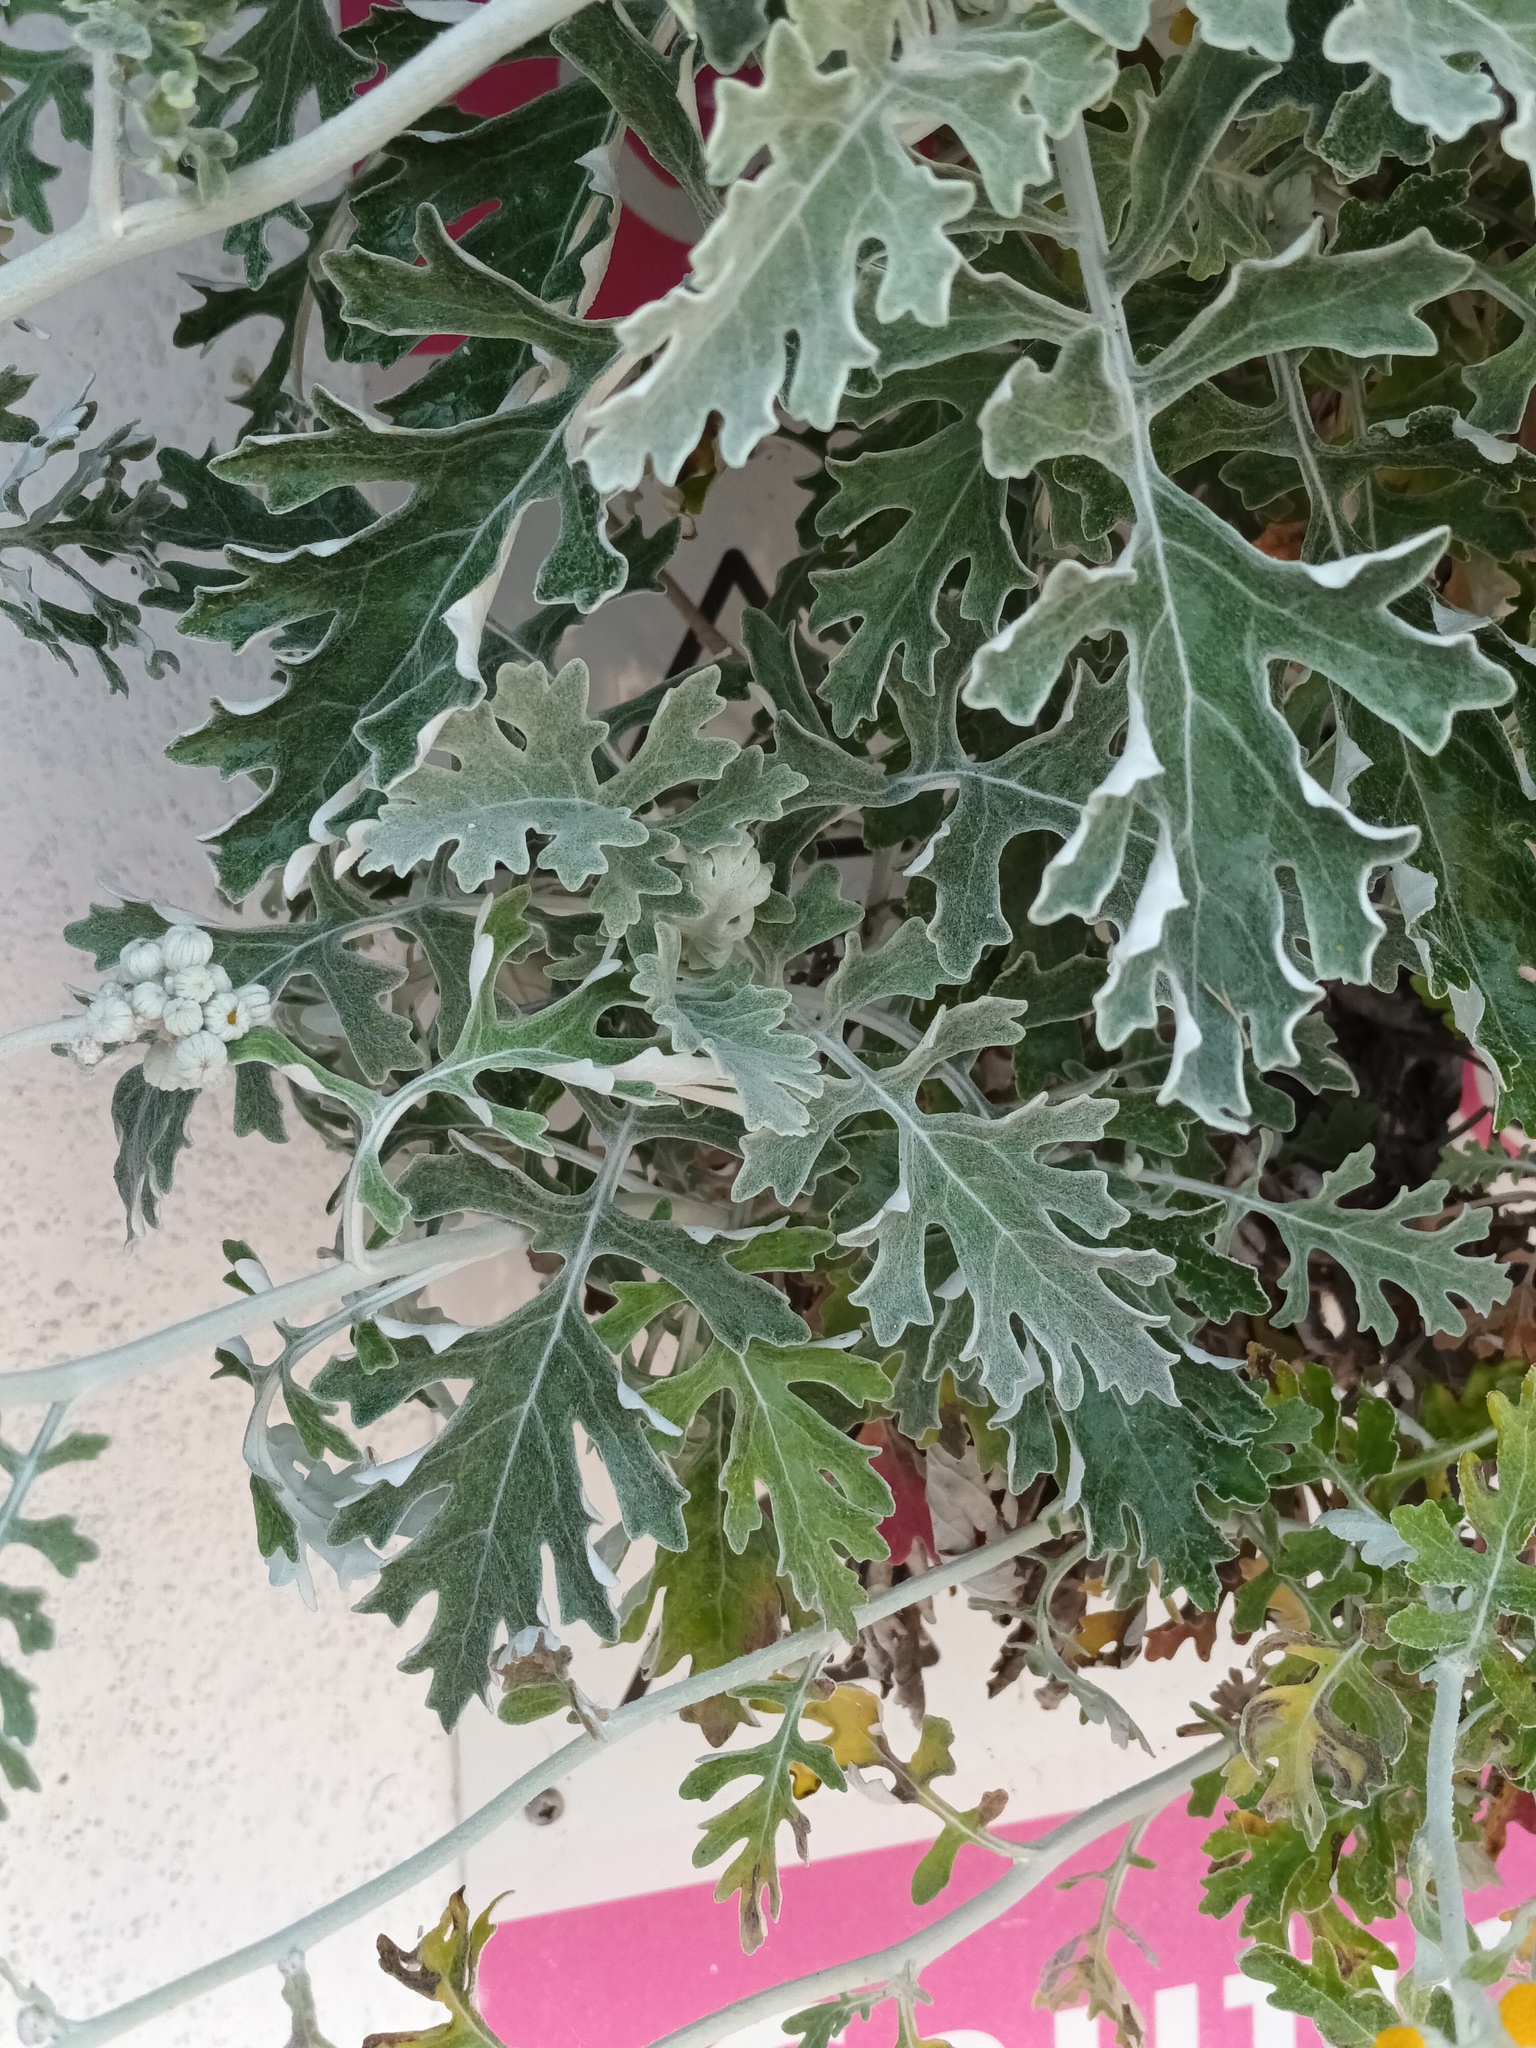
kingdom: Plantae
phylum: Tracheophyta
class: Magnoliopsida
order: Asterales
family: Asteraceae
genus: Jacobaea
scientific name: Jacobaea maritima
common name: Silver ragwort
